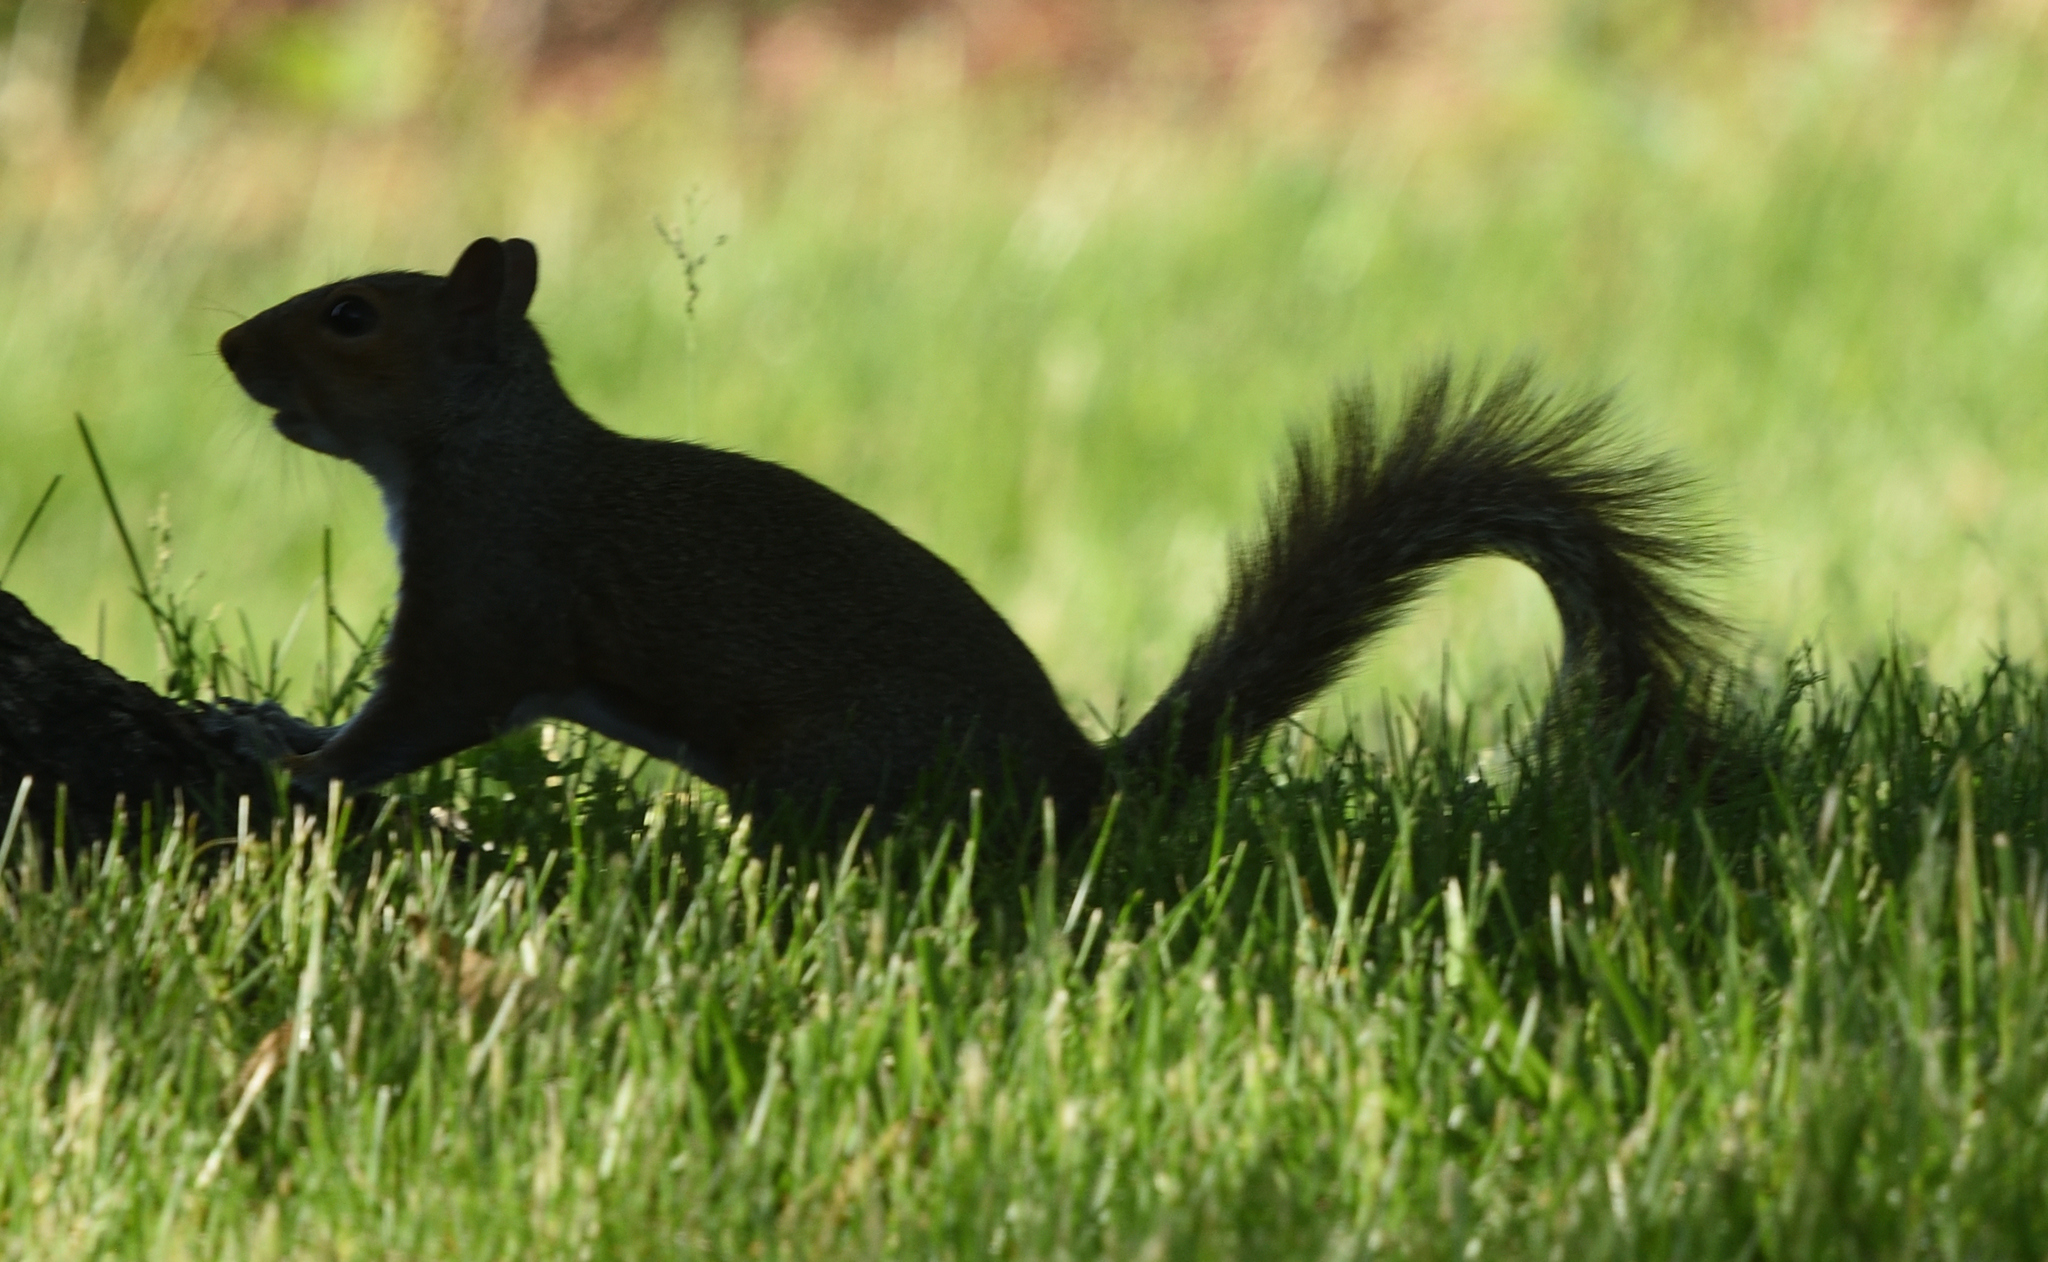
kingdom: Animalia
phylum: Chordata
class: Mammalia
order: Rodentia
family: Sciuridae
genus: Sciurus
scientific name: Sciurus carolinensis
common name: Eastern gray squirrel
